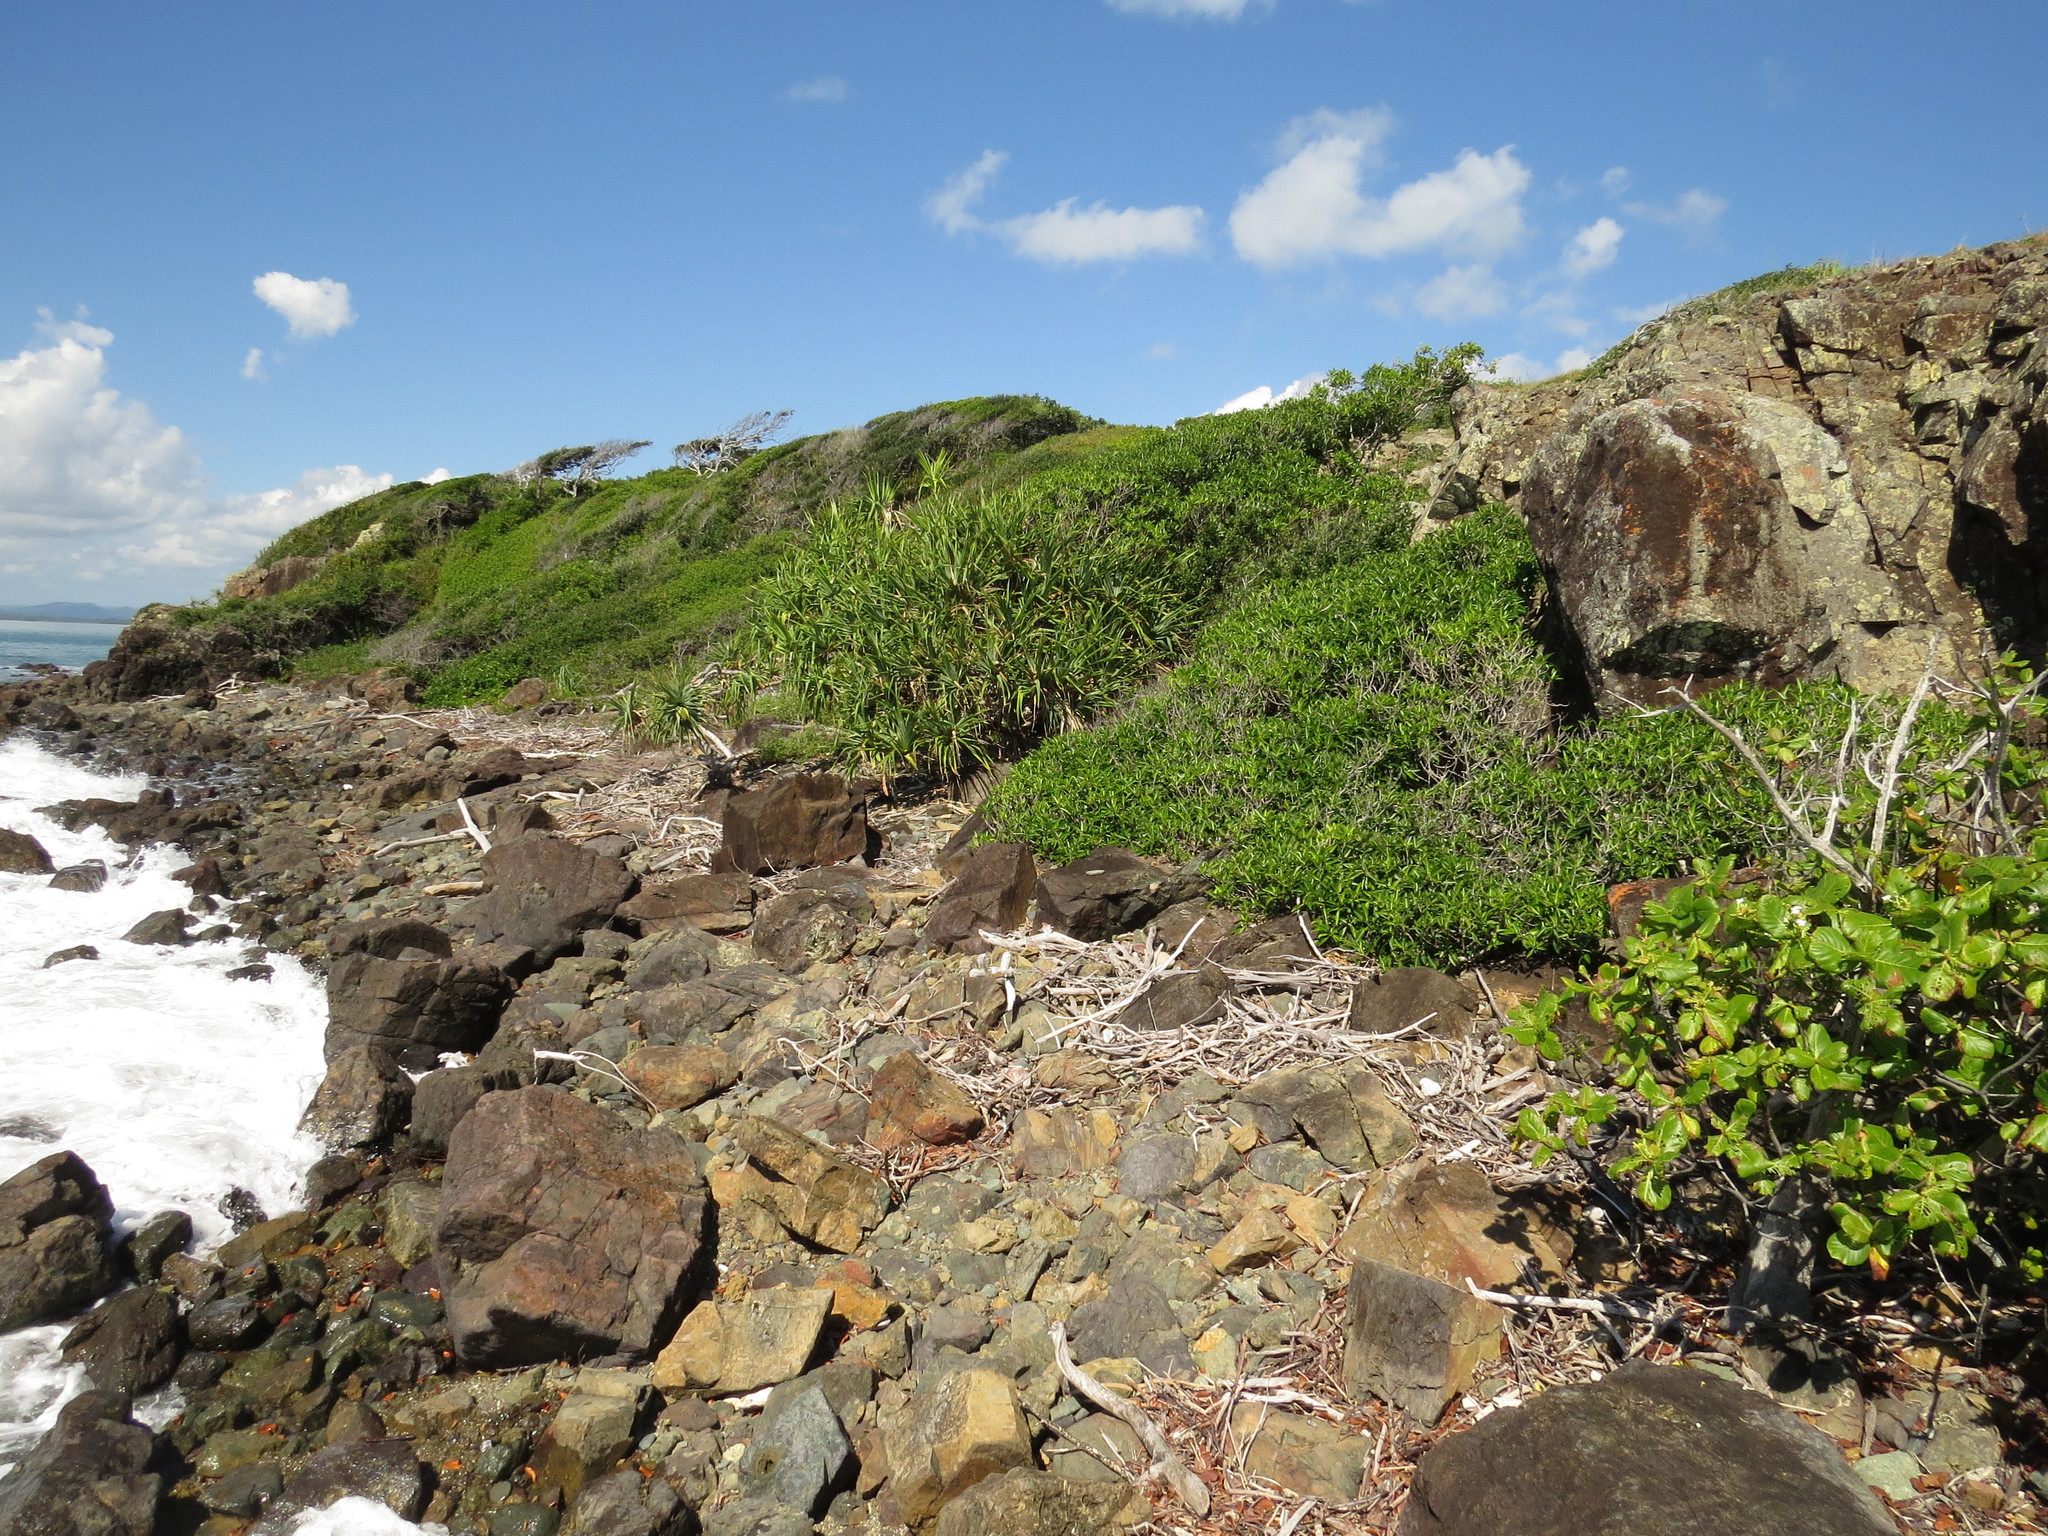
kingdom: Plantae
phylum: Tracheophyta
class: Magnoliopsida
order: Gentianales
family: Rubiaceae
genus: Guettarda
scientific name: Guettarda speciosa
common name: Sea randa
